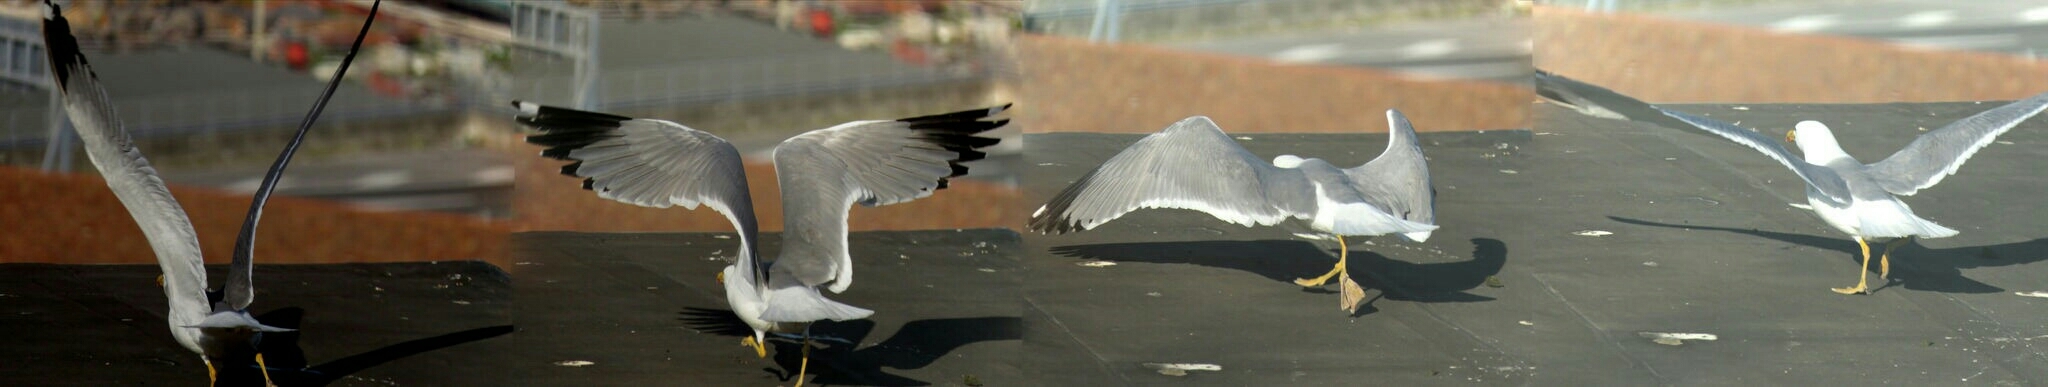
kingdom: Animalia
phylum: Chordata
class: Aves
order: Charadriiformes
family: Laridae
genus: Larus
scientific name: Larus michahellis
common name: Yellow-legged gull
